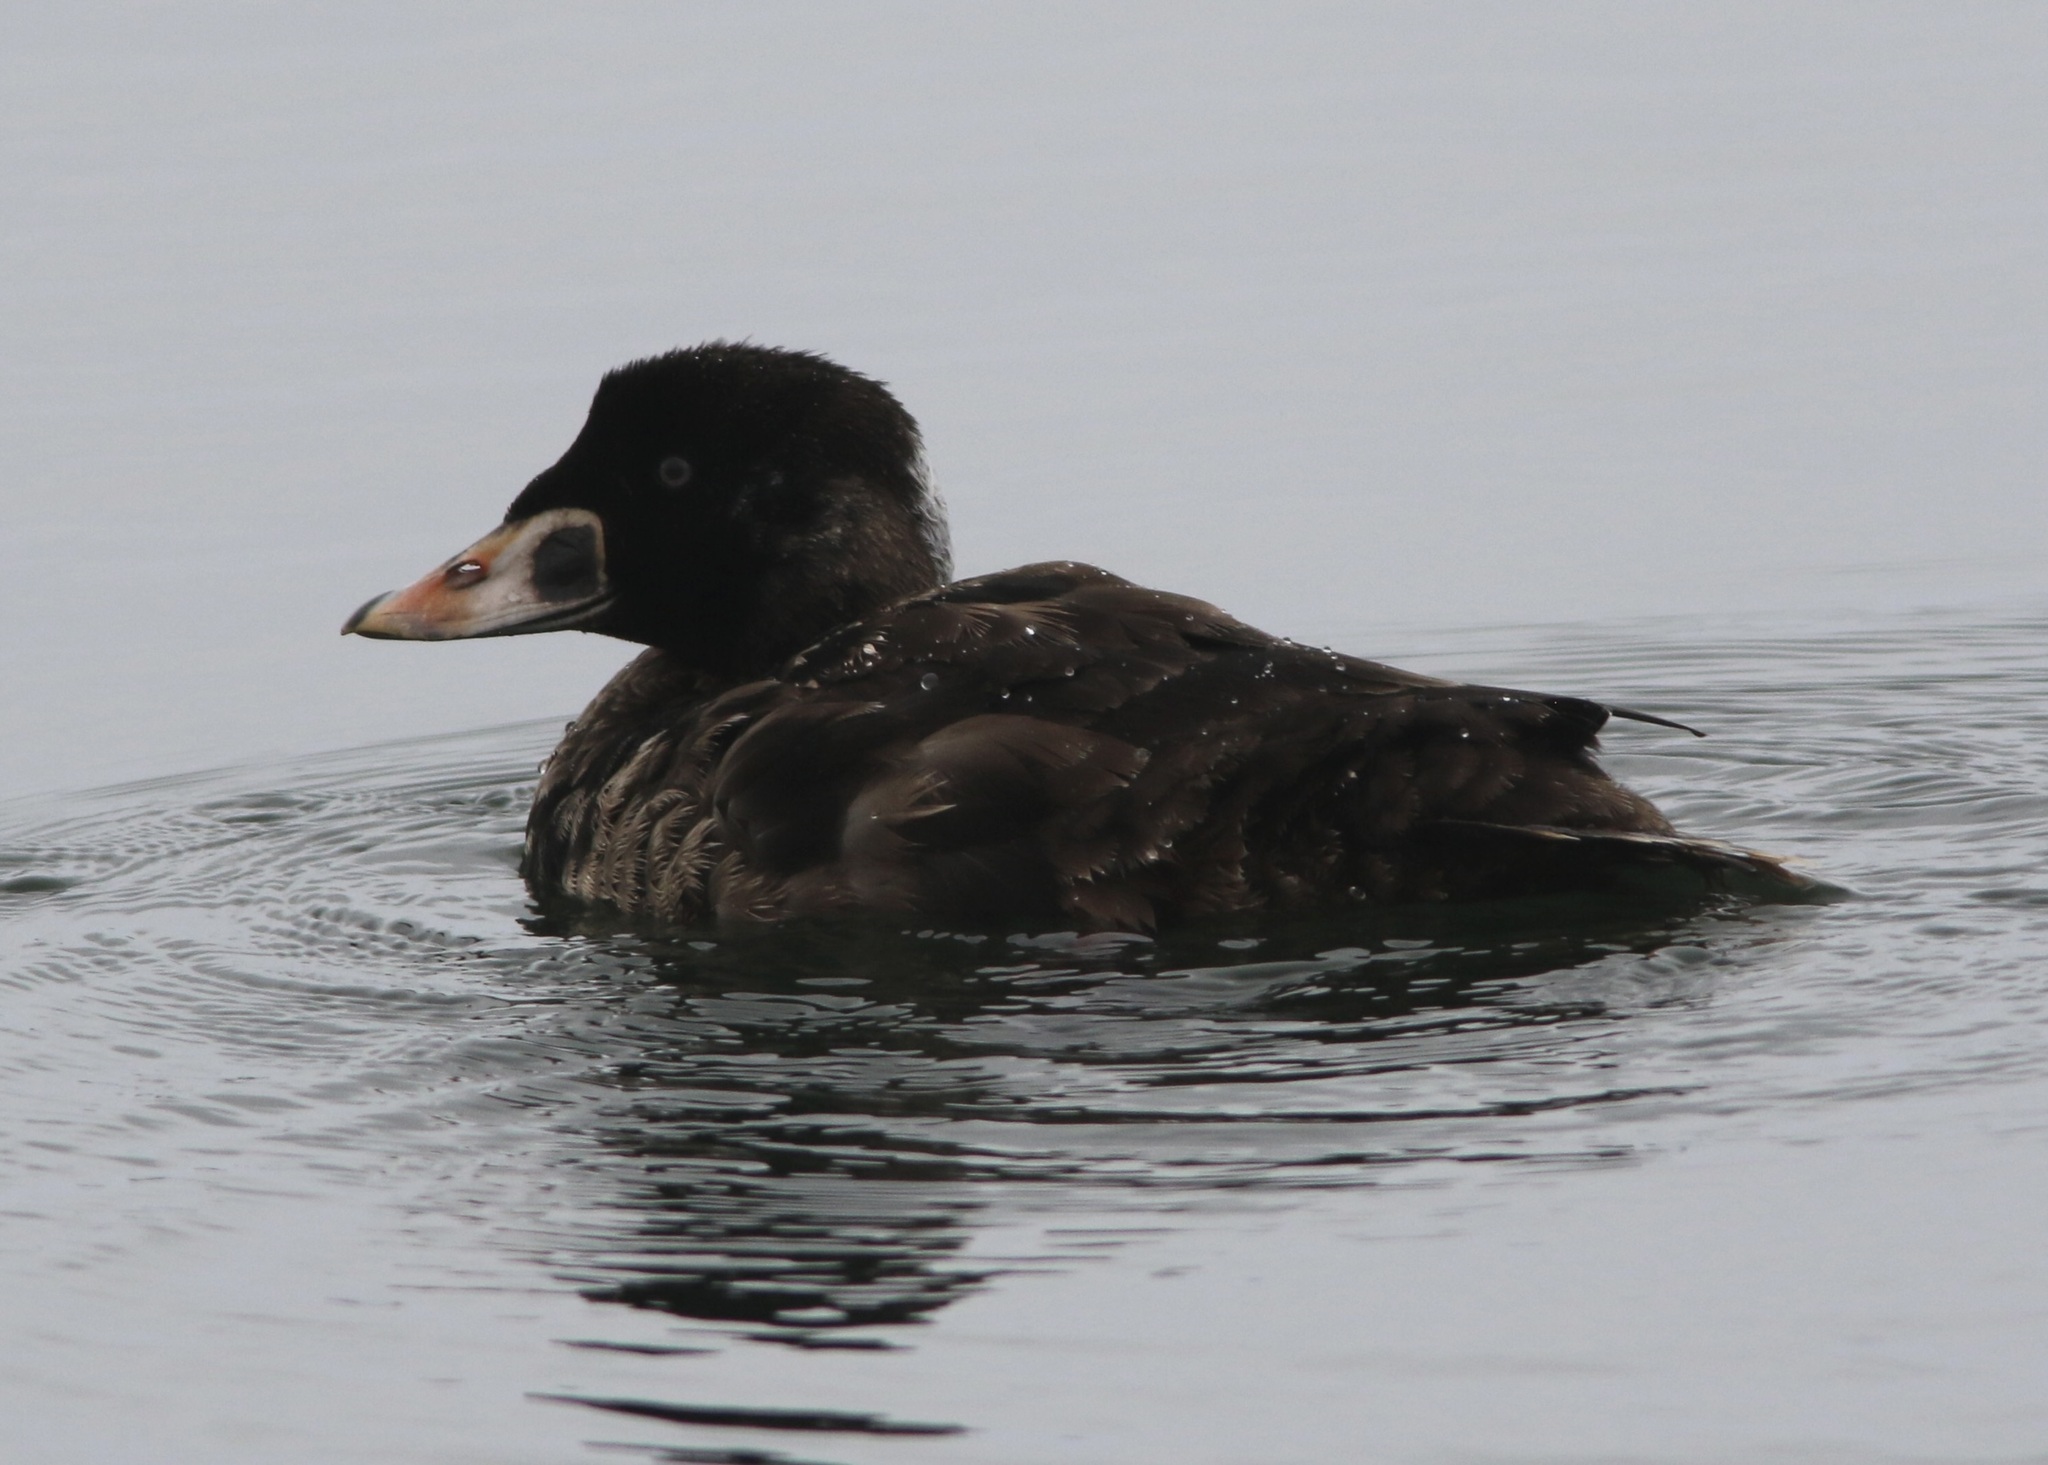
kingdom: Animalia
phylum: Chordata
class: Aves
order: Anseriformes
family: Anatidae
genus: Melanitta
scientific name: Melanitta perspicillata
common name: Surf scoter
